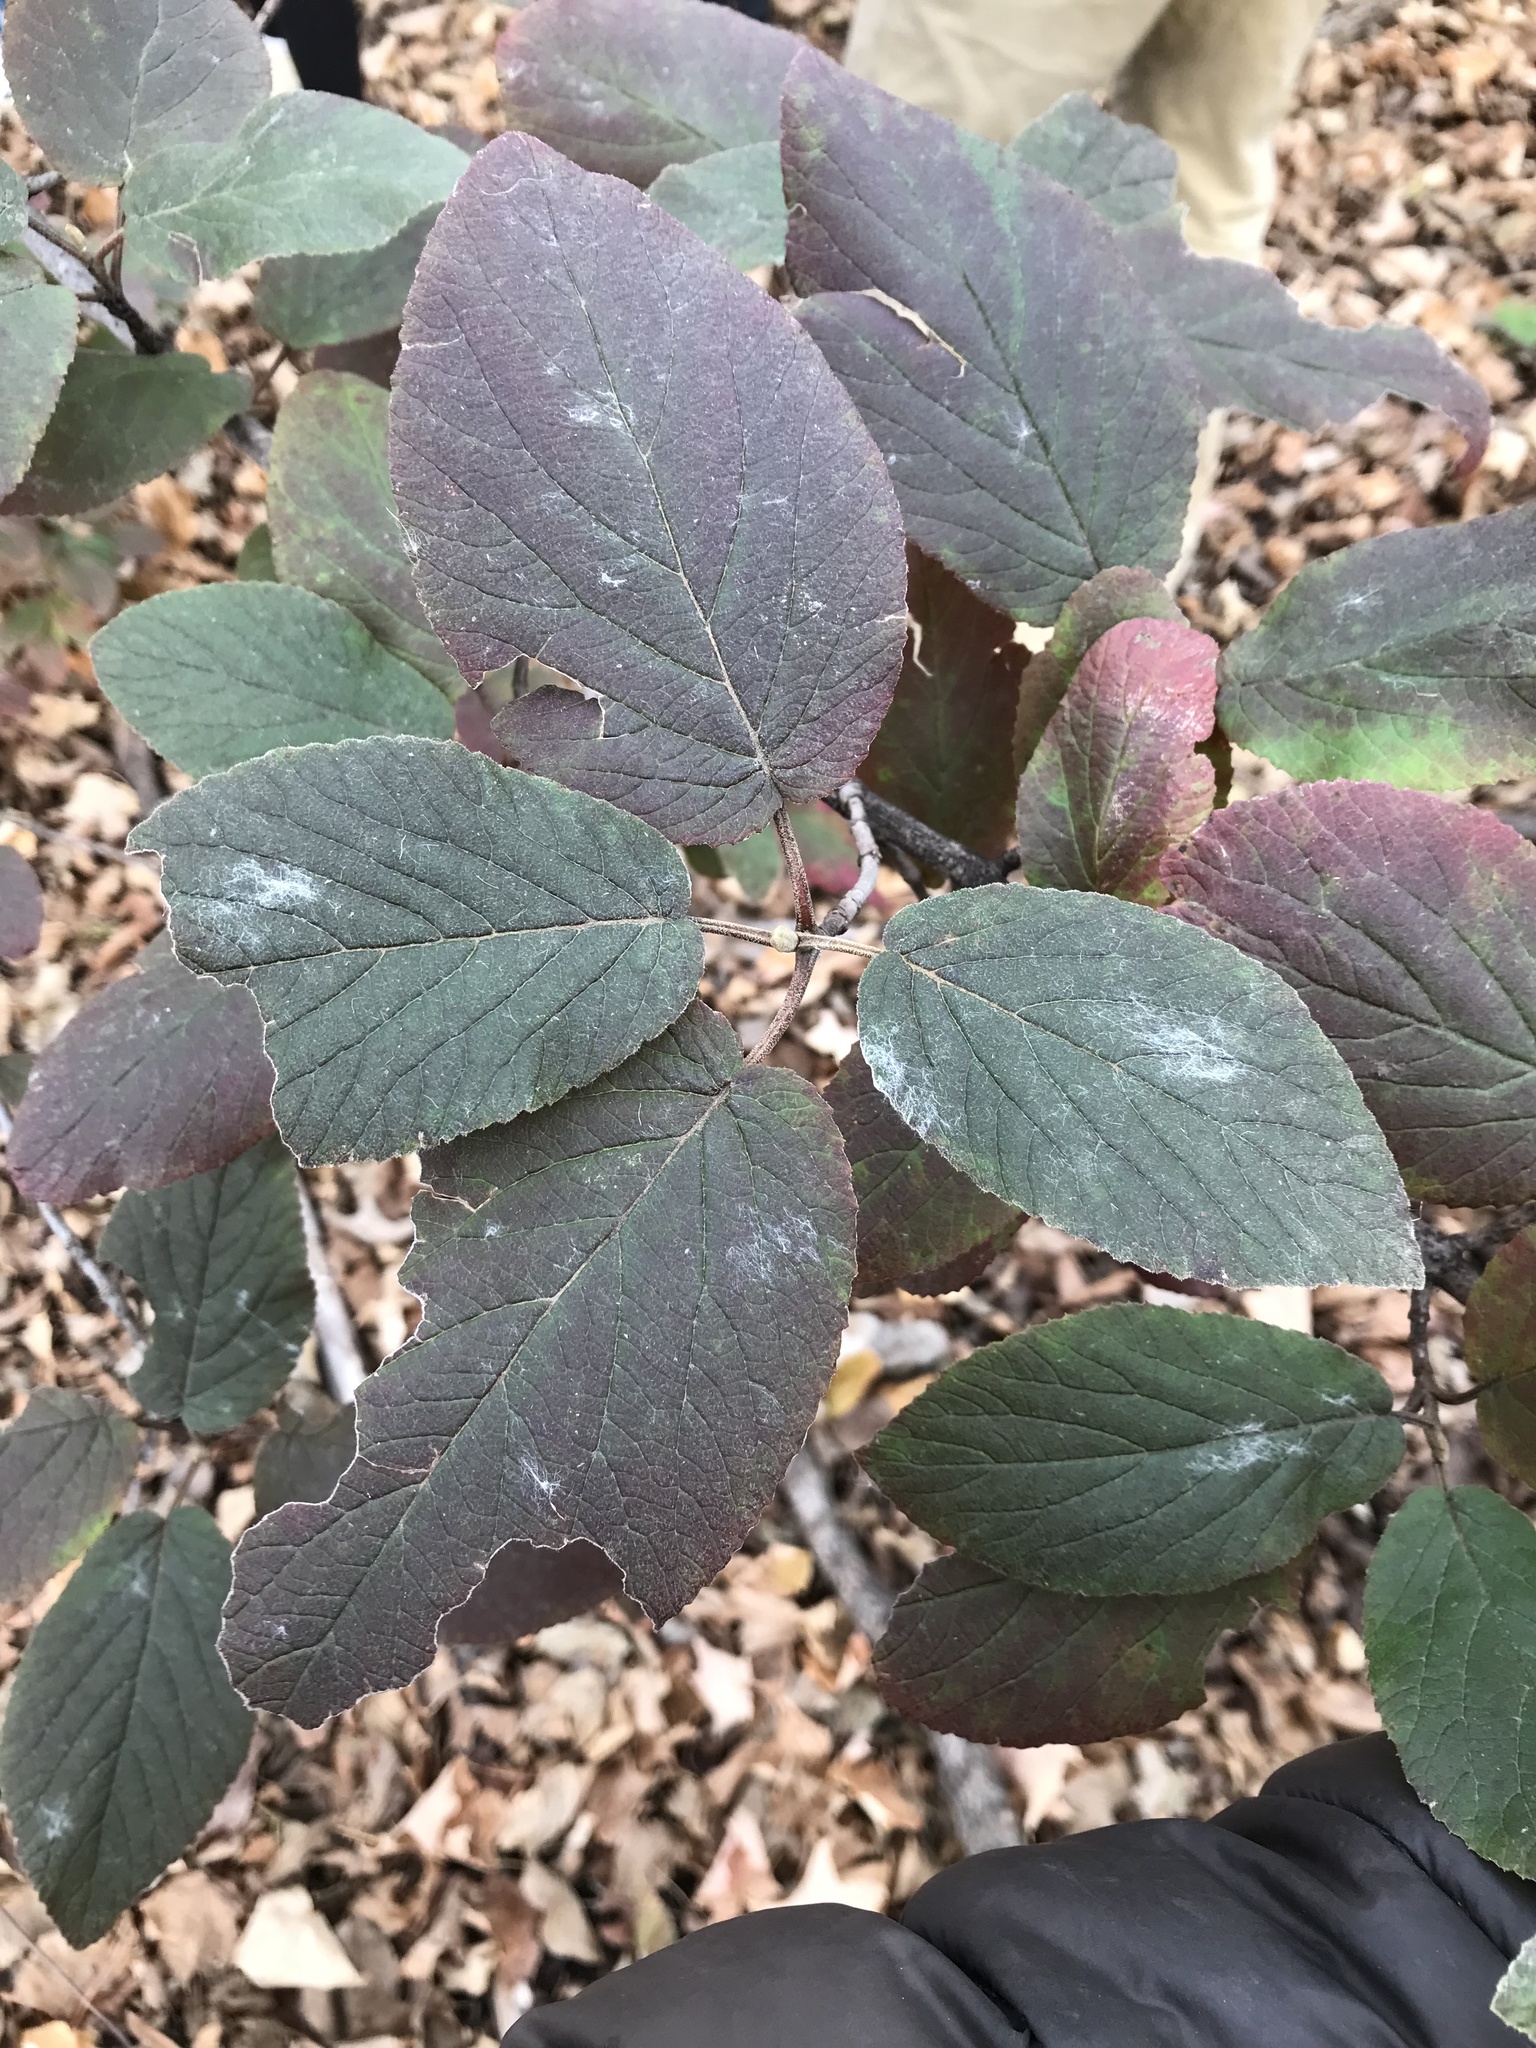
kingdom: Plantae
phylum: Tracheophyta
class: Magnoliopsida
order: Dipsacales
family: Viburnaceae
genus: Viburnum
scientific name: Viburnum lantana
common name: Wayfaring tree
